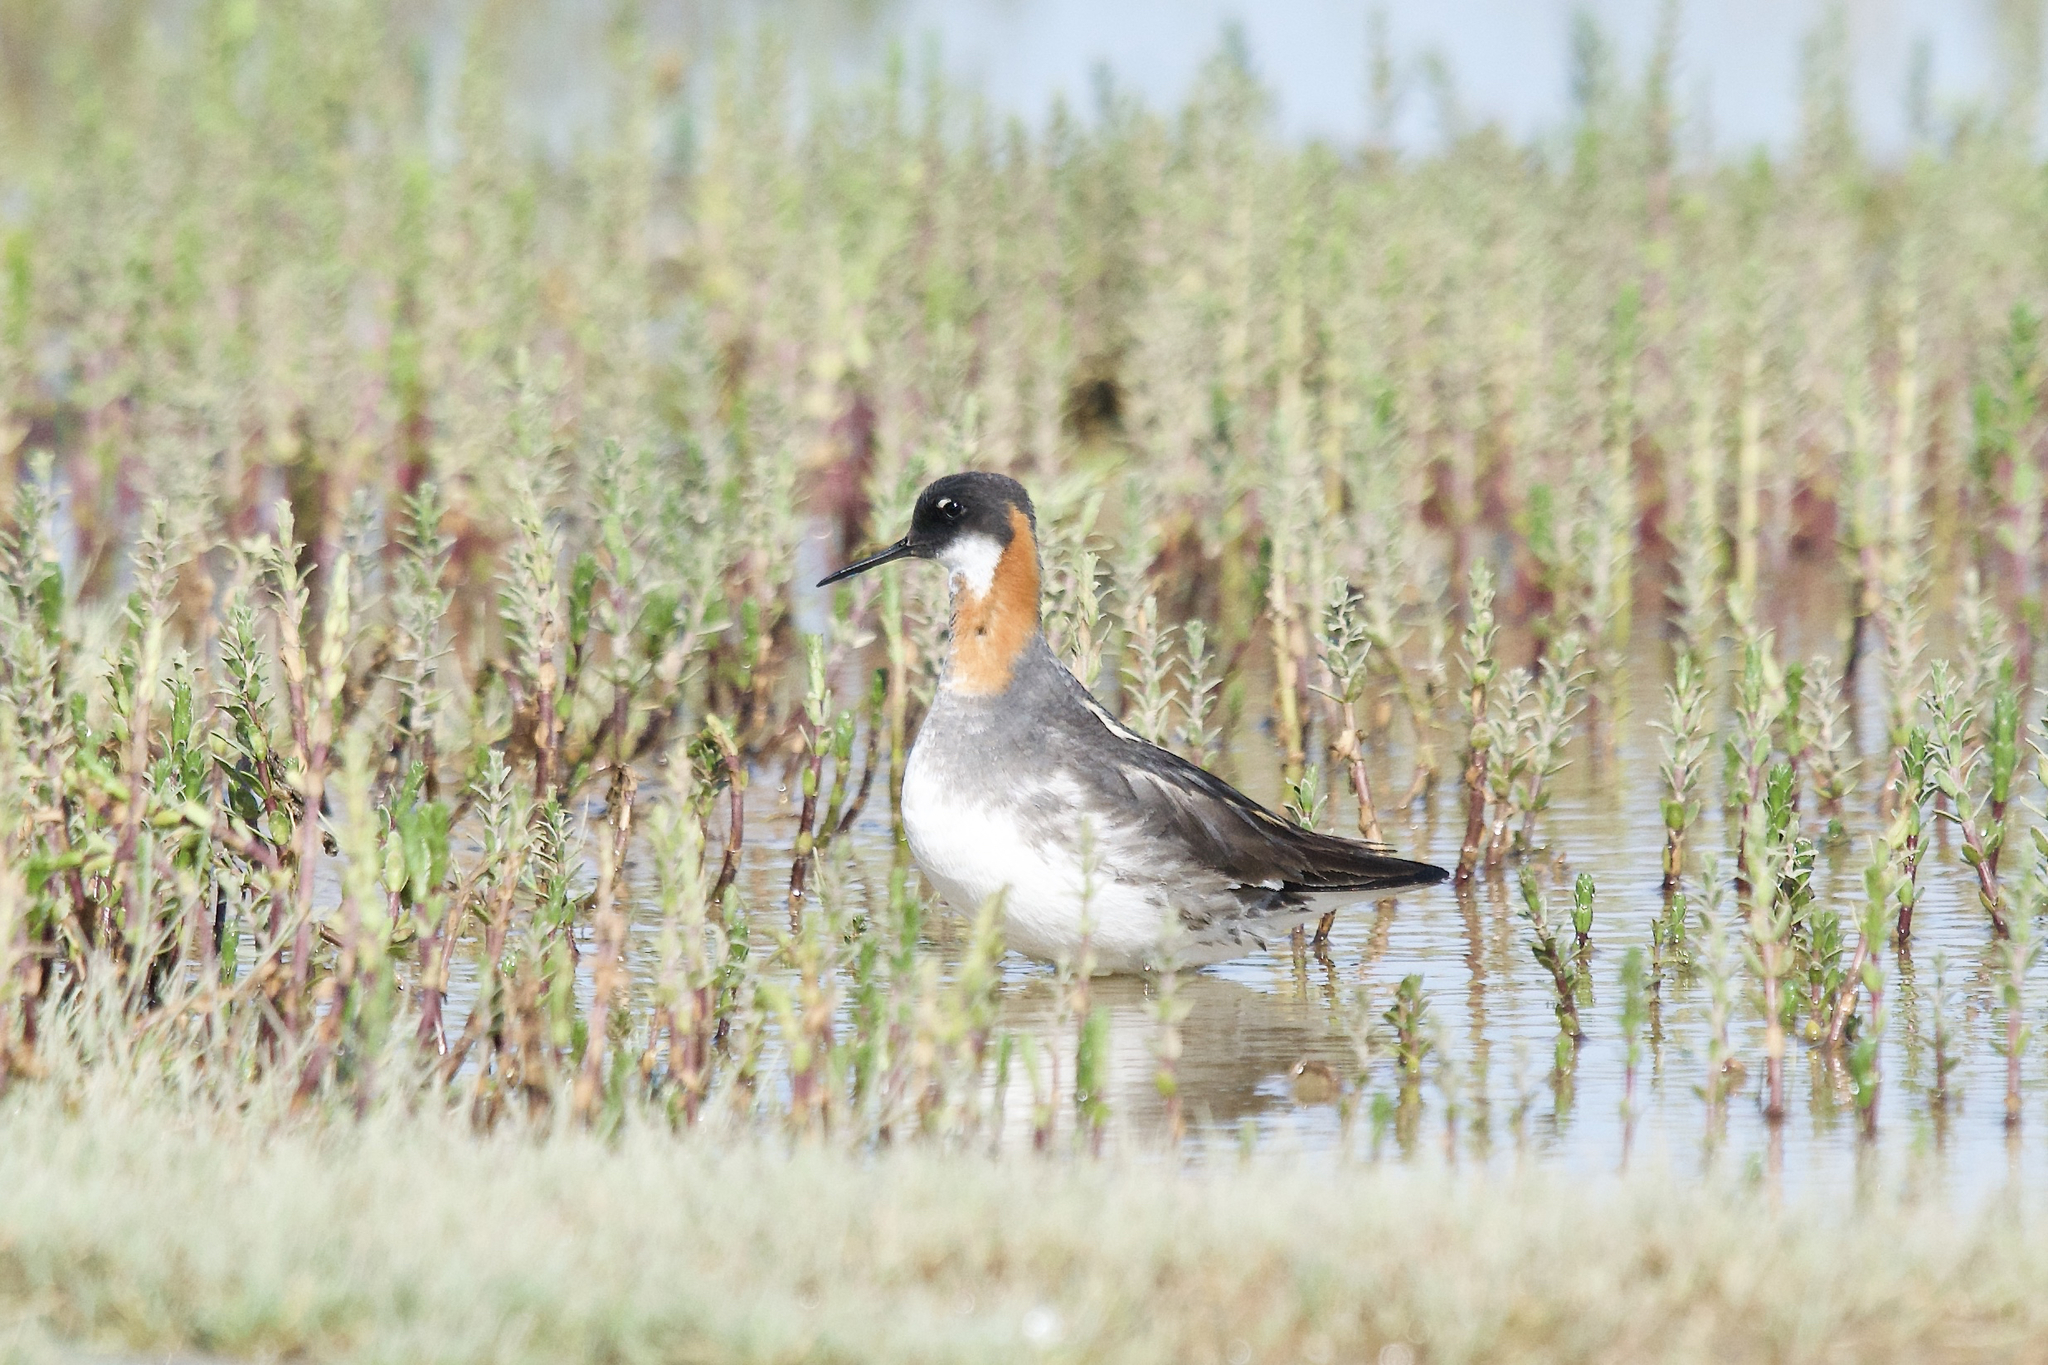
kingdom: Animalia
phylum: Chordata
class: Aves
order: Charadriiformes
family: Scolopacidae
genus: Phalaropus
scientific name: Phalaropus lobatus
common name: Red-necked phalarope
